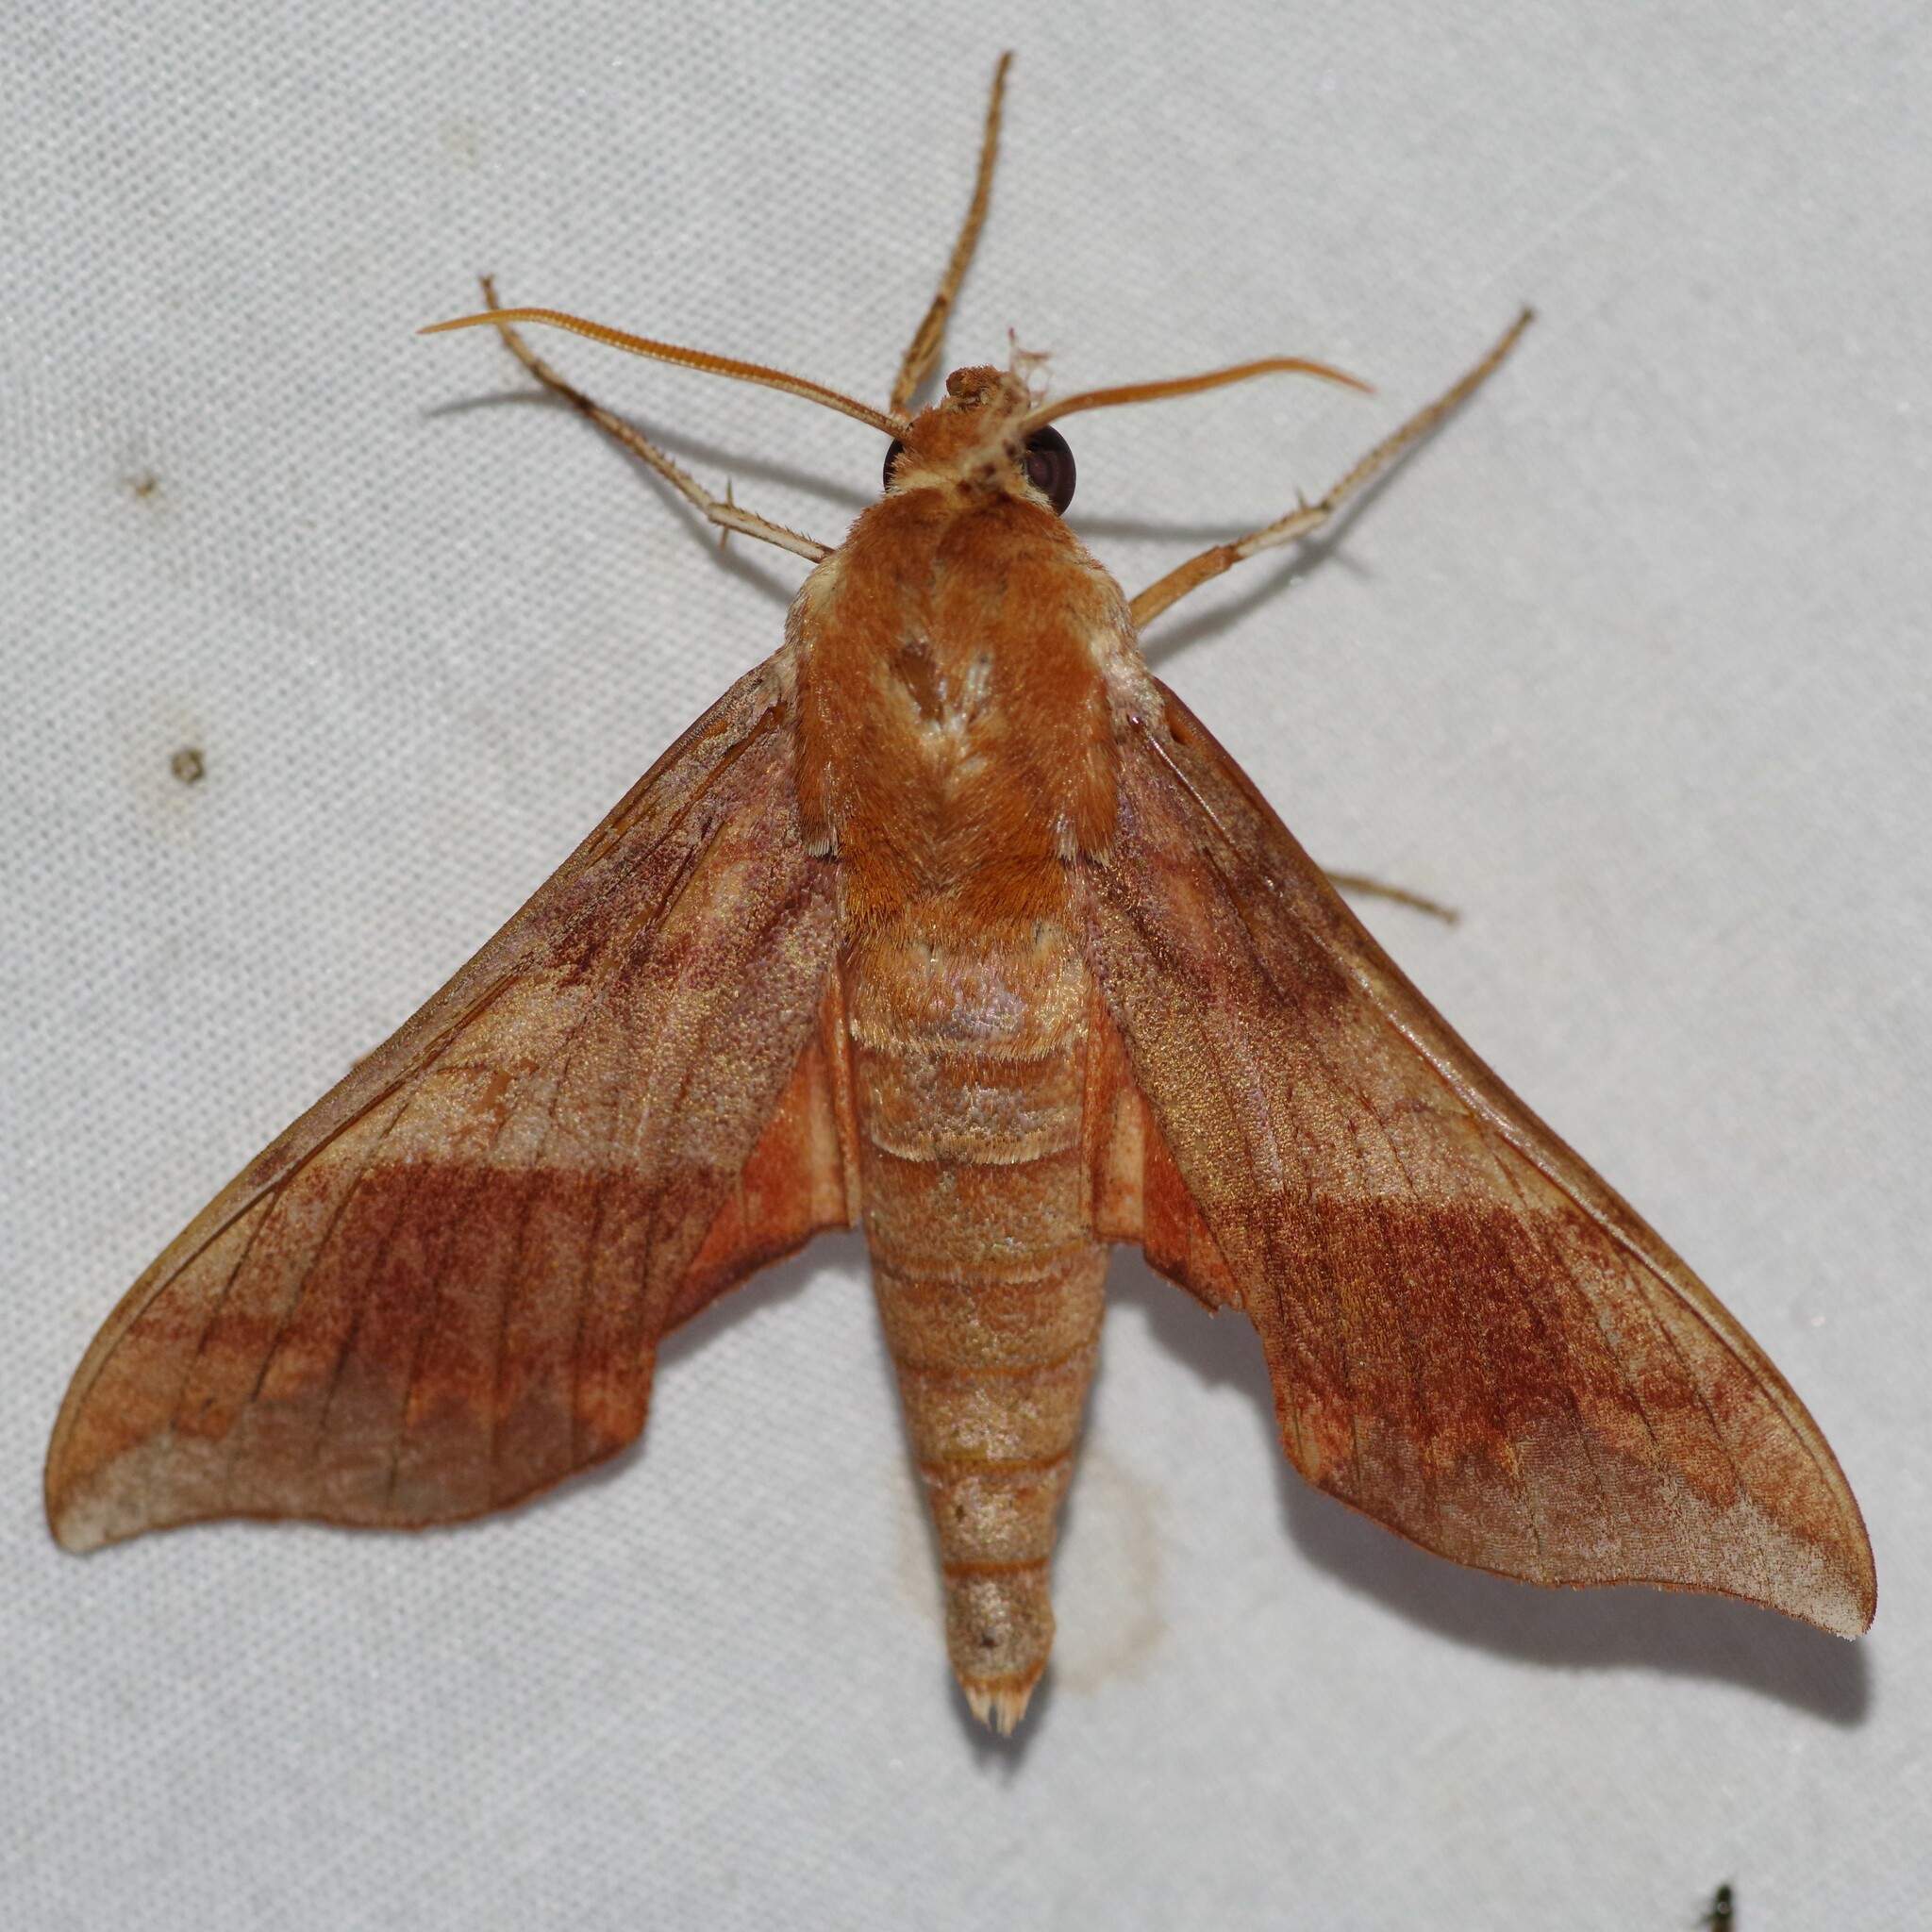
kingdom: Animalia
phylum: Arthropoda
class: Insecta
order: Lepidoptera
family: Sphingidae
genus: Darapsa
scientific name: Darapsa choerilus
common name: Azalea sphinx
